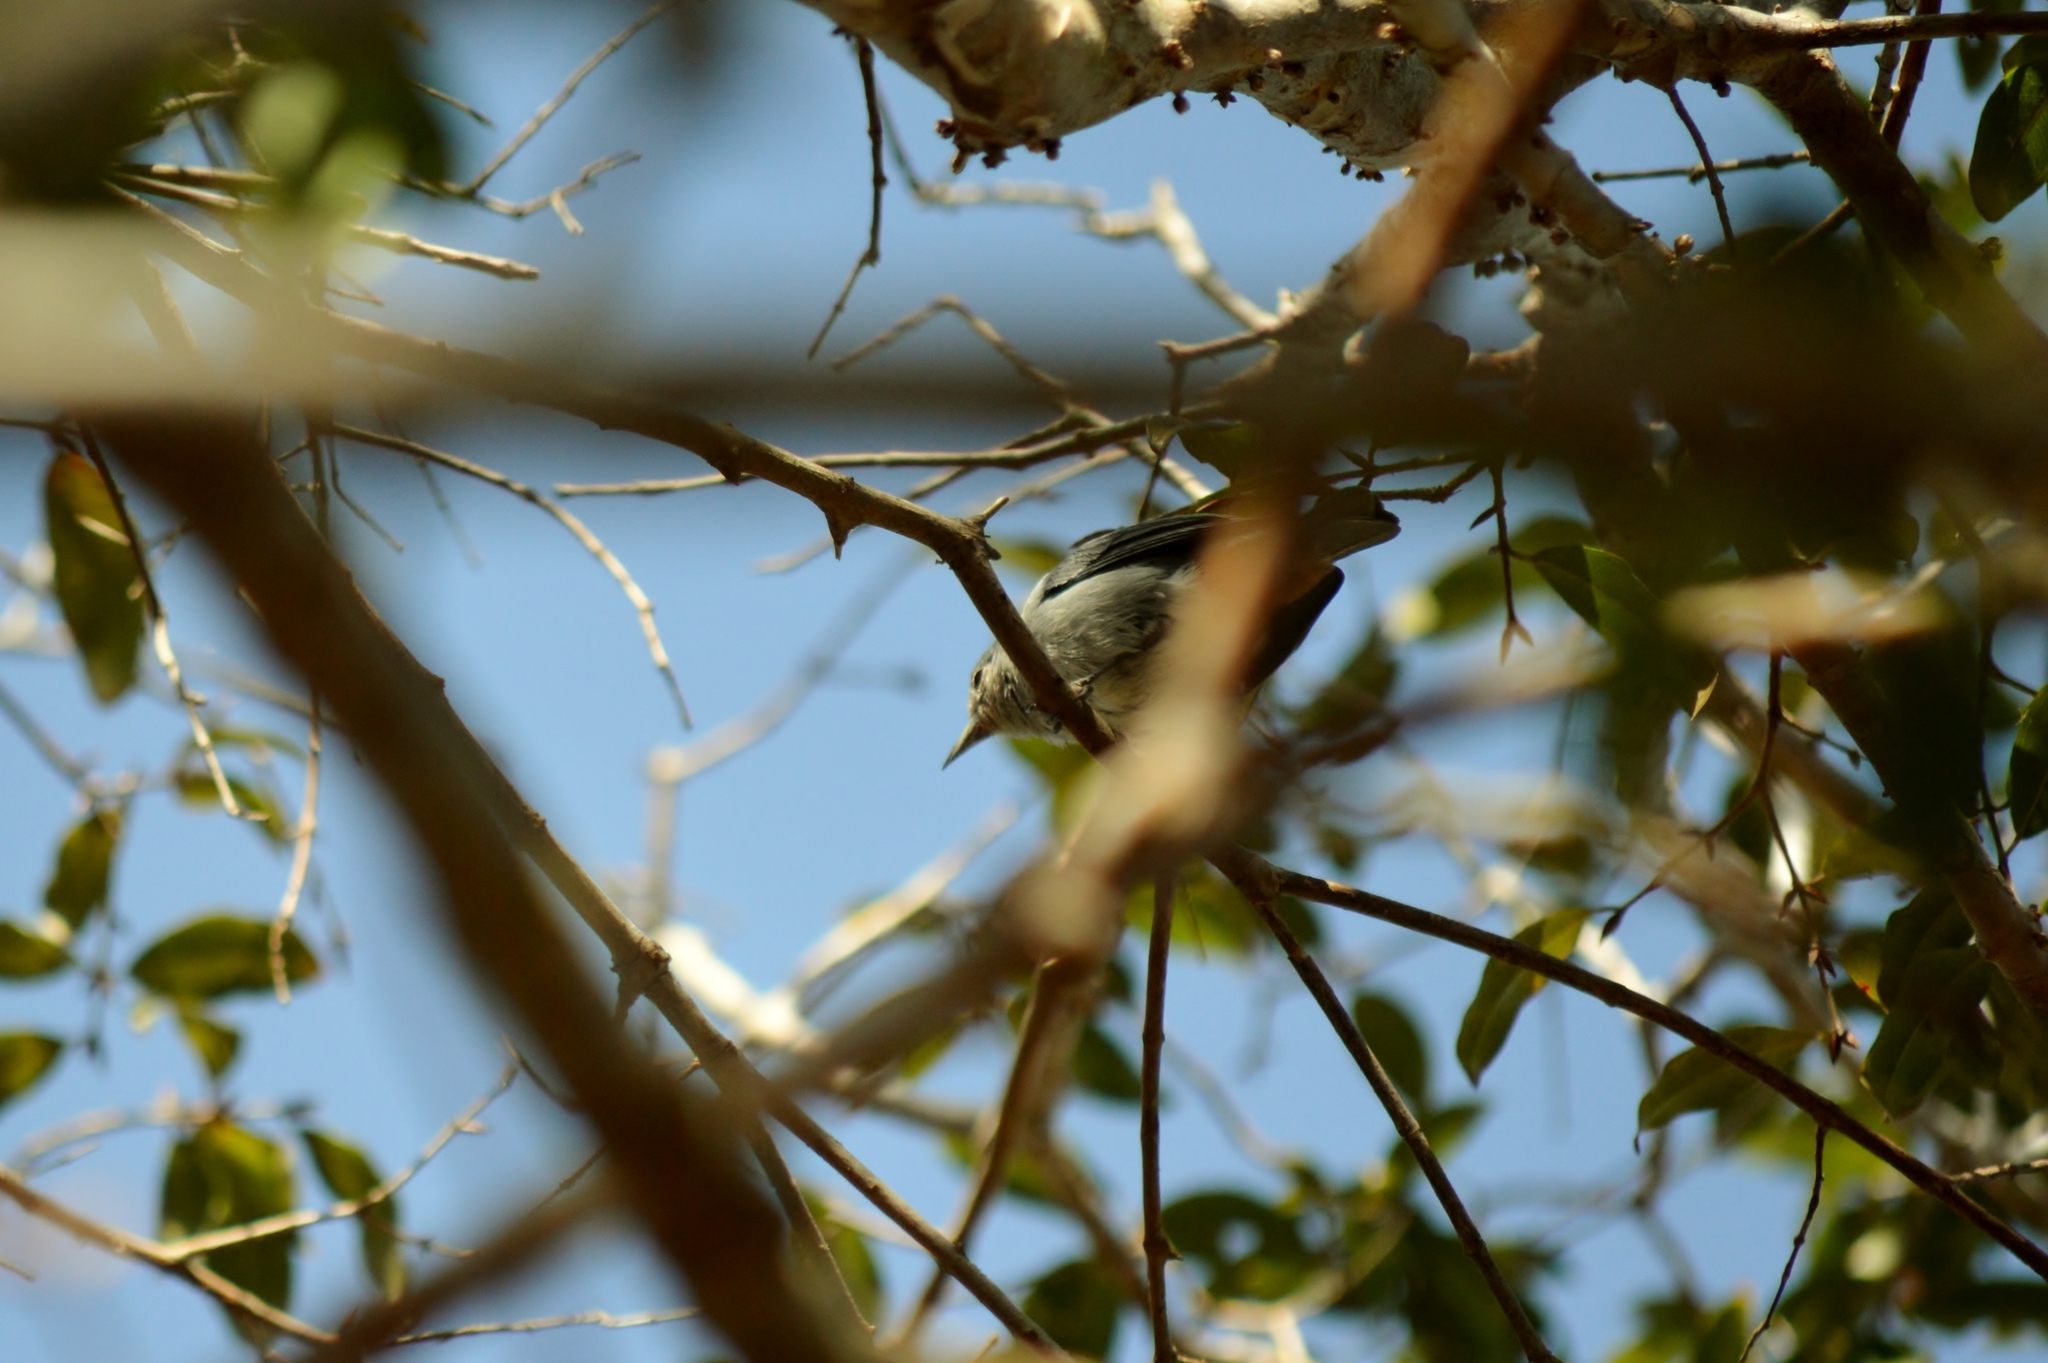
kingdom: Animalia
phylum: Chordata
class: Aves
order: Passeriformes
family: Thraupidae
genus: Conirostrum
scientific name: Conirostrum speciosum
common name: Chestnut-vented conebill
